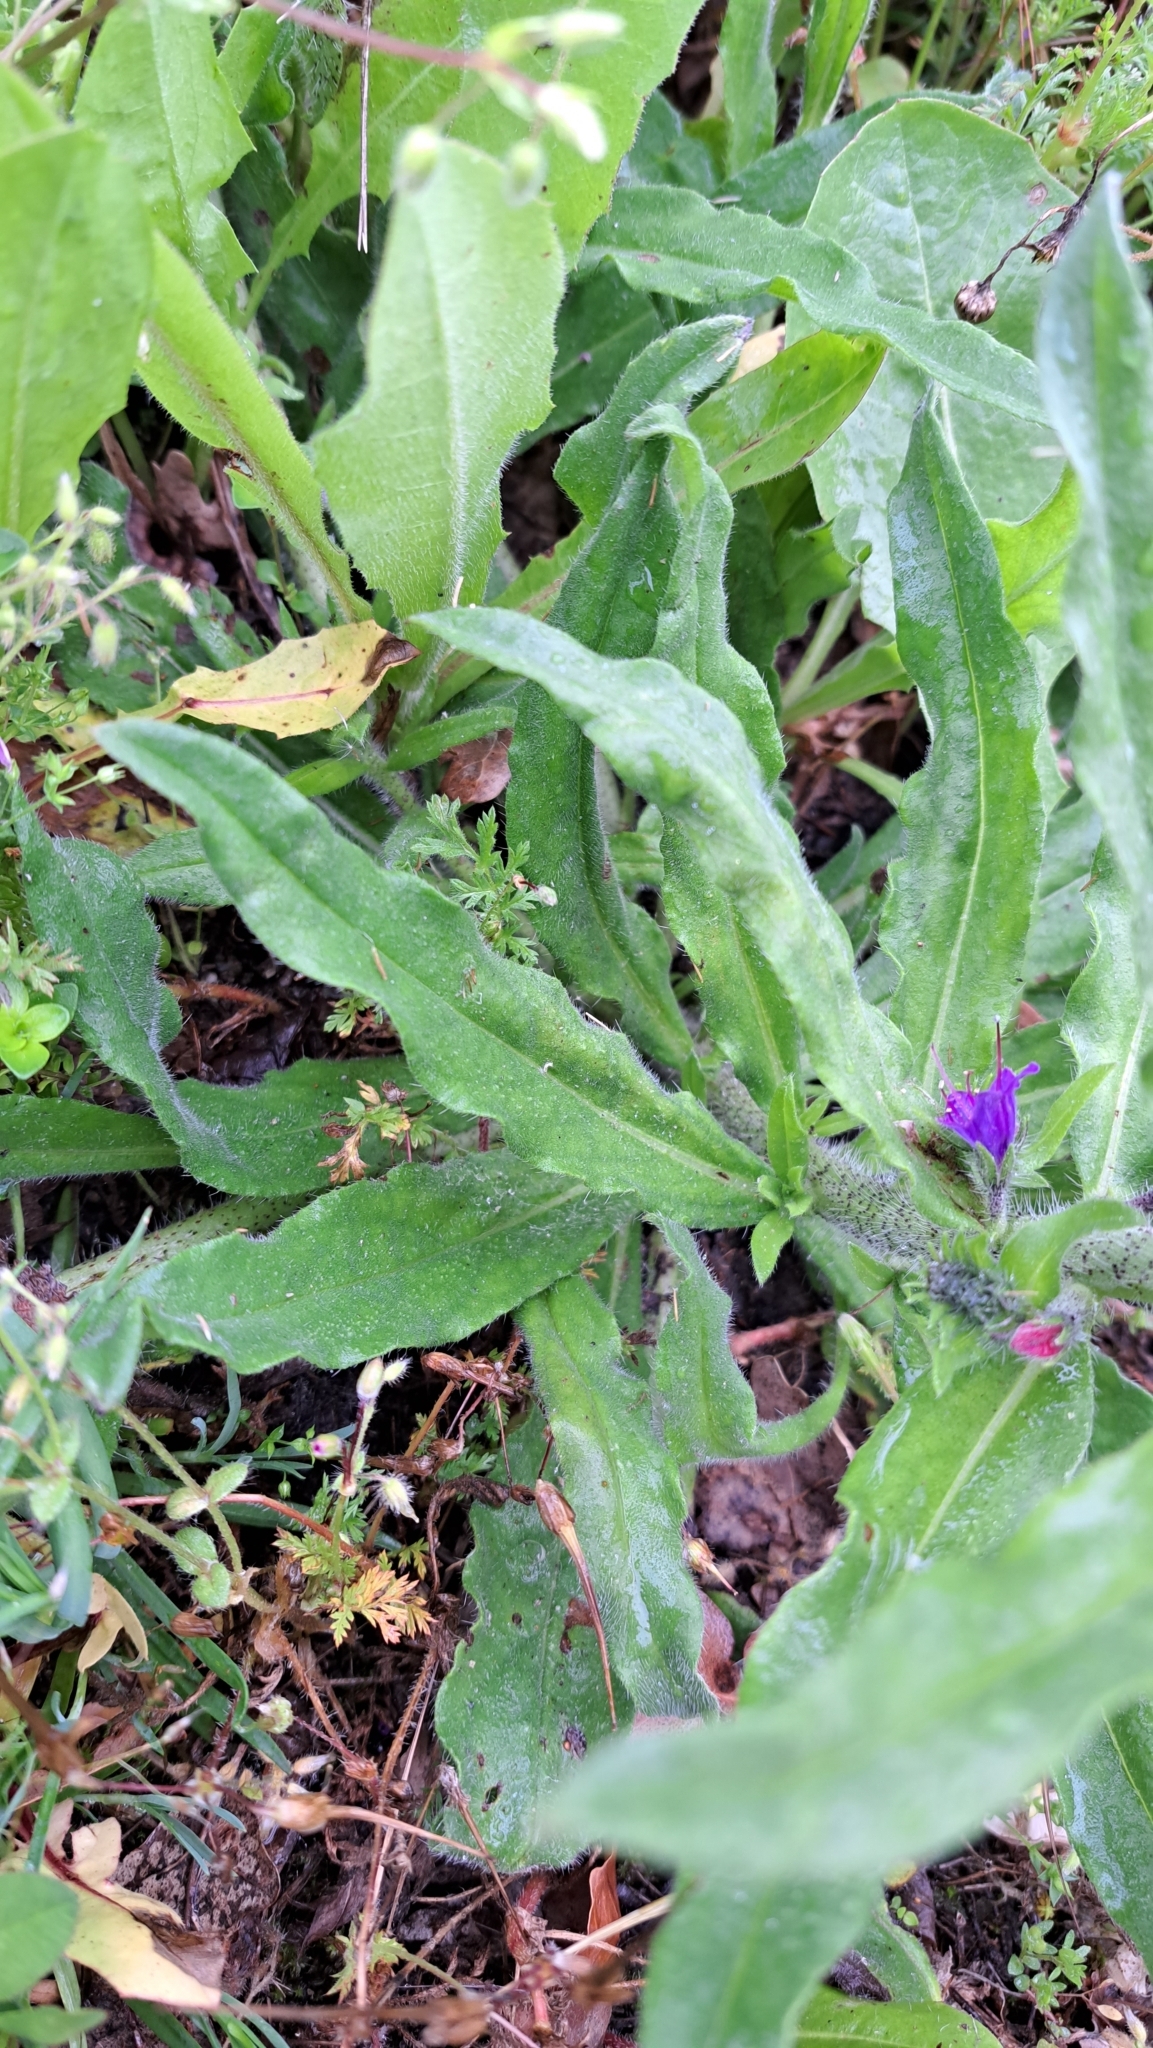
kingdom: Plantae
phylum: Tracheophyta
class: Magnoliopsida
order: Boraginales
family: Boraginaceae
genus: Echium
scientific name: Echium vulgare
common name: Common viper's bugloss
